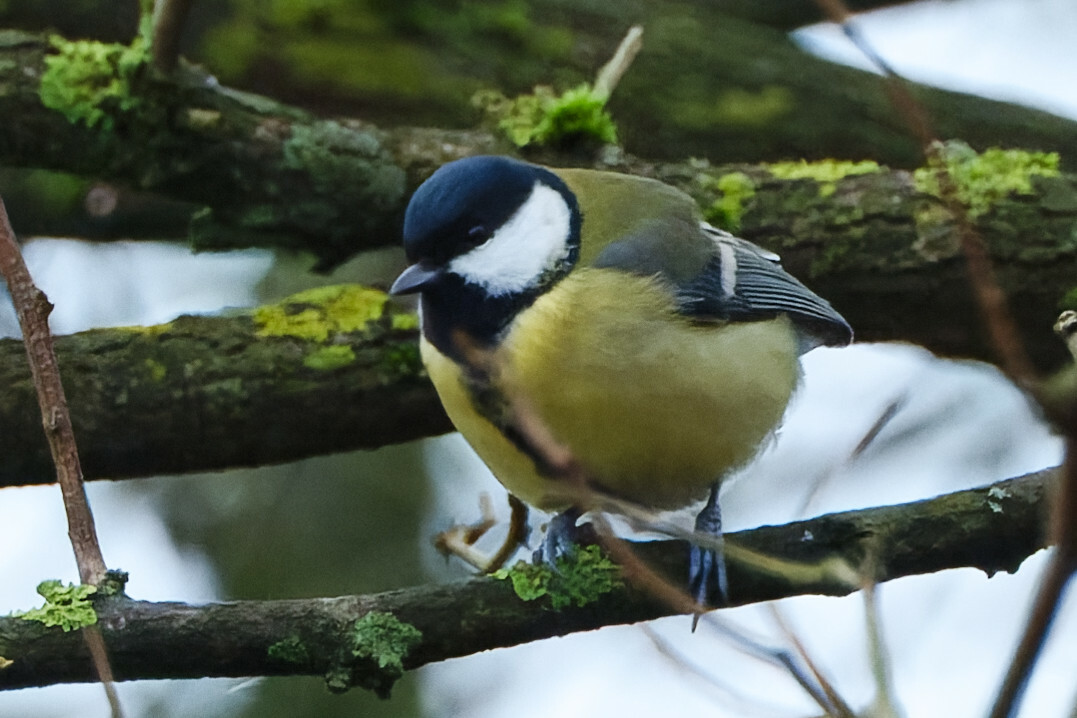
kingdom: Animalia
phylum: Chordata
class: Aves
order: Passeriformes
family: Paridae
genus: Parus
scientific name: Parus major
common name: Great tit
